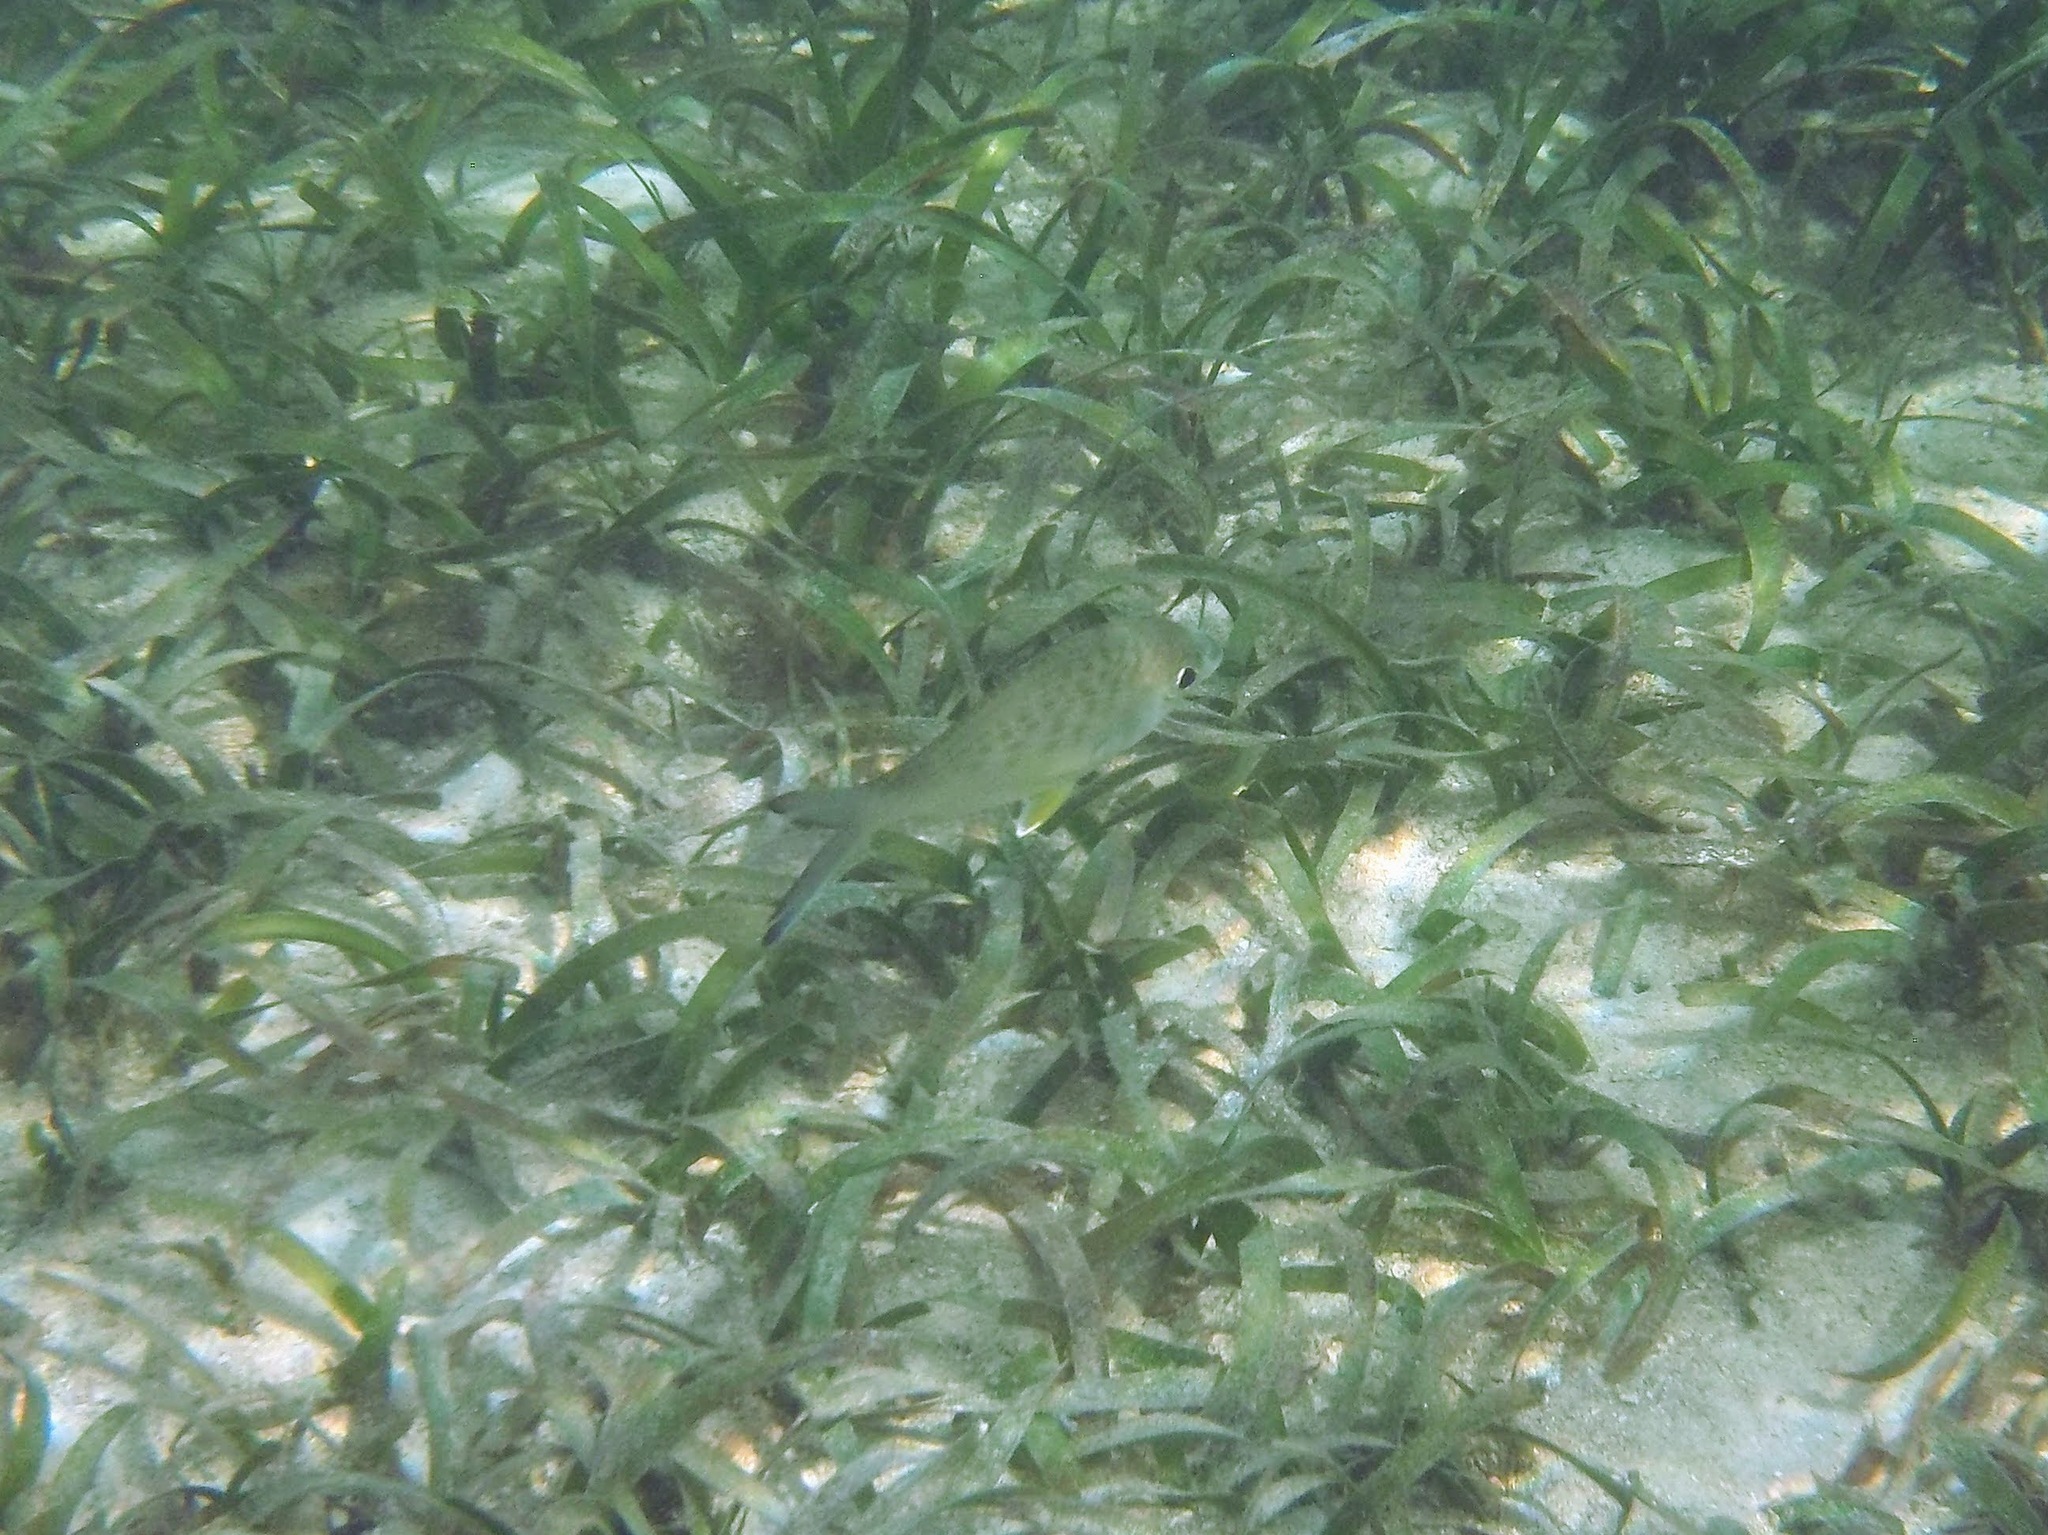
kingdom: Animalia
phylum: Chordata
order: Perciformes
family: Gerreidae
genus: Gerres
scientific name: Gerres cinereus
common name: Hedow
